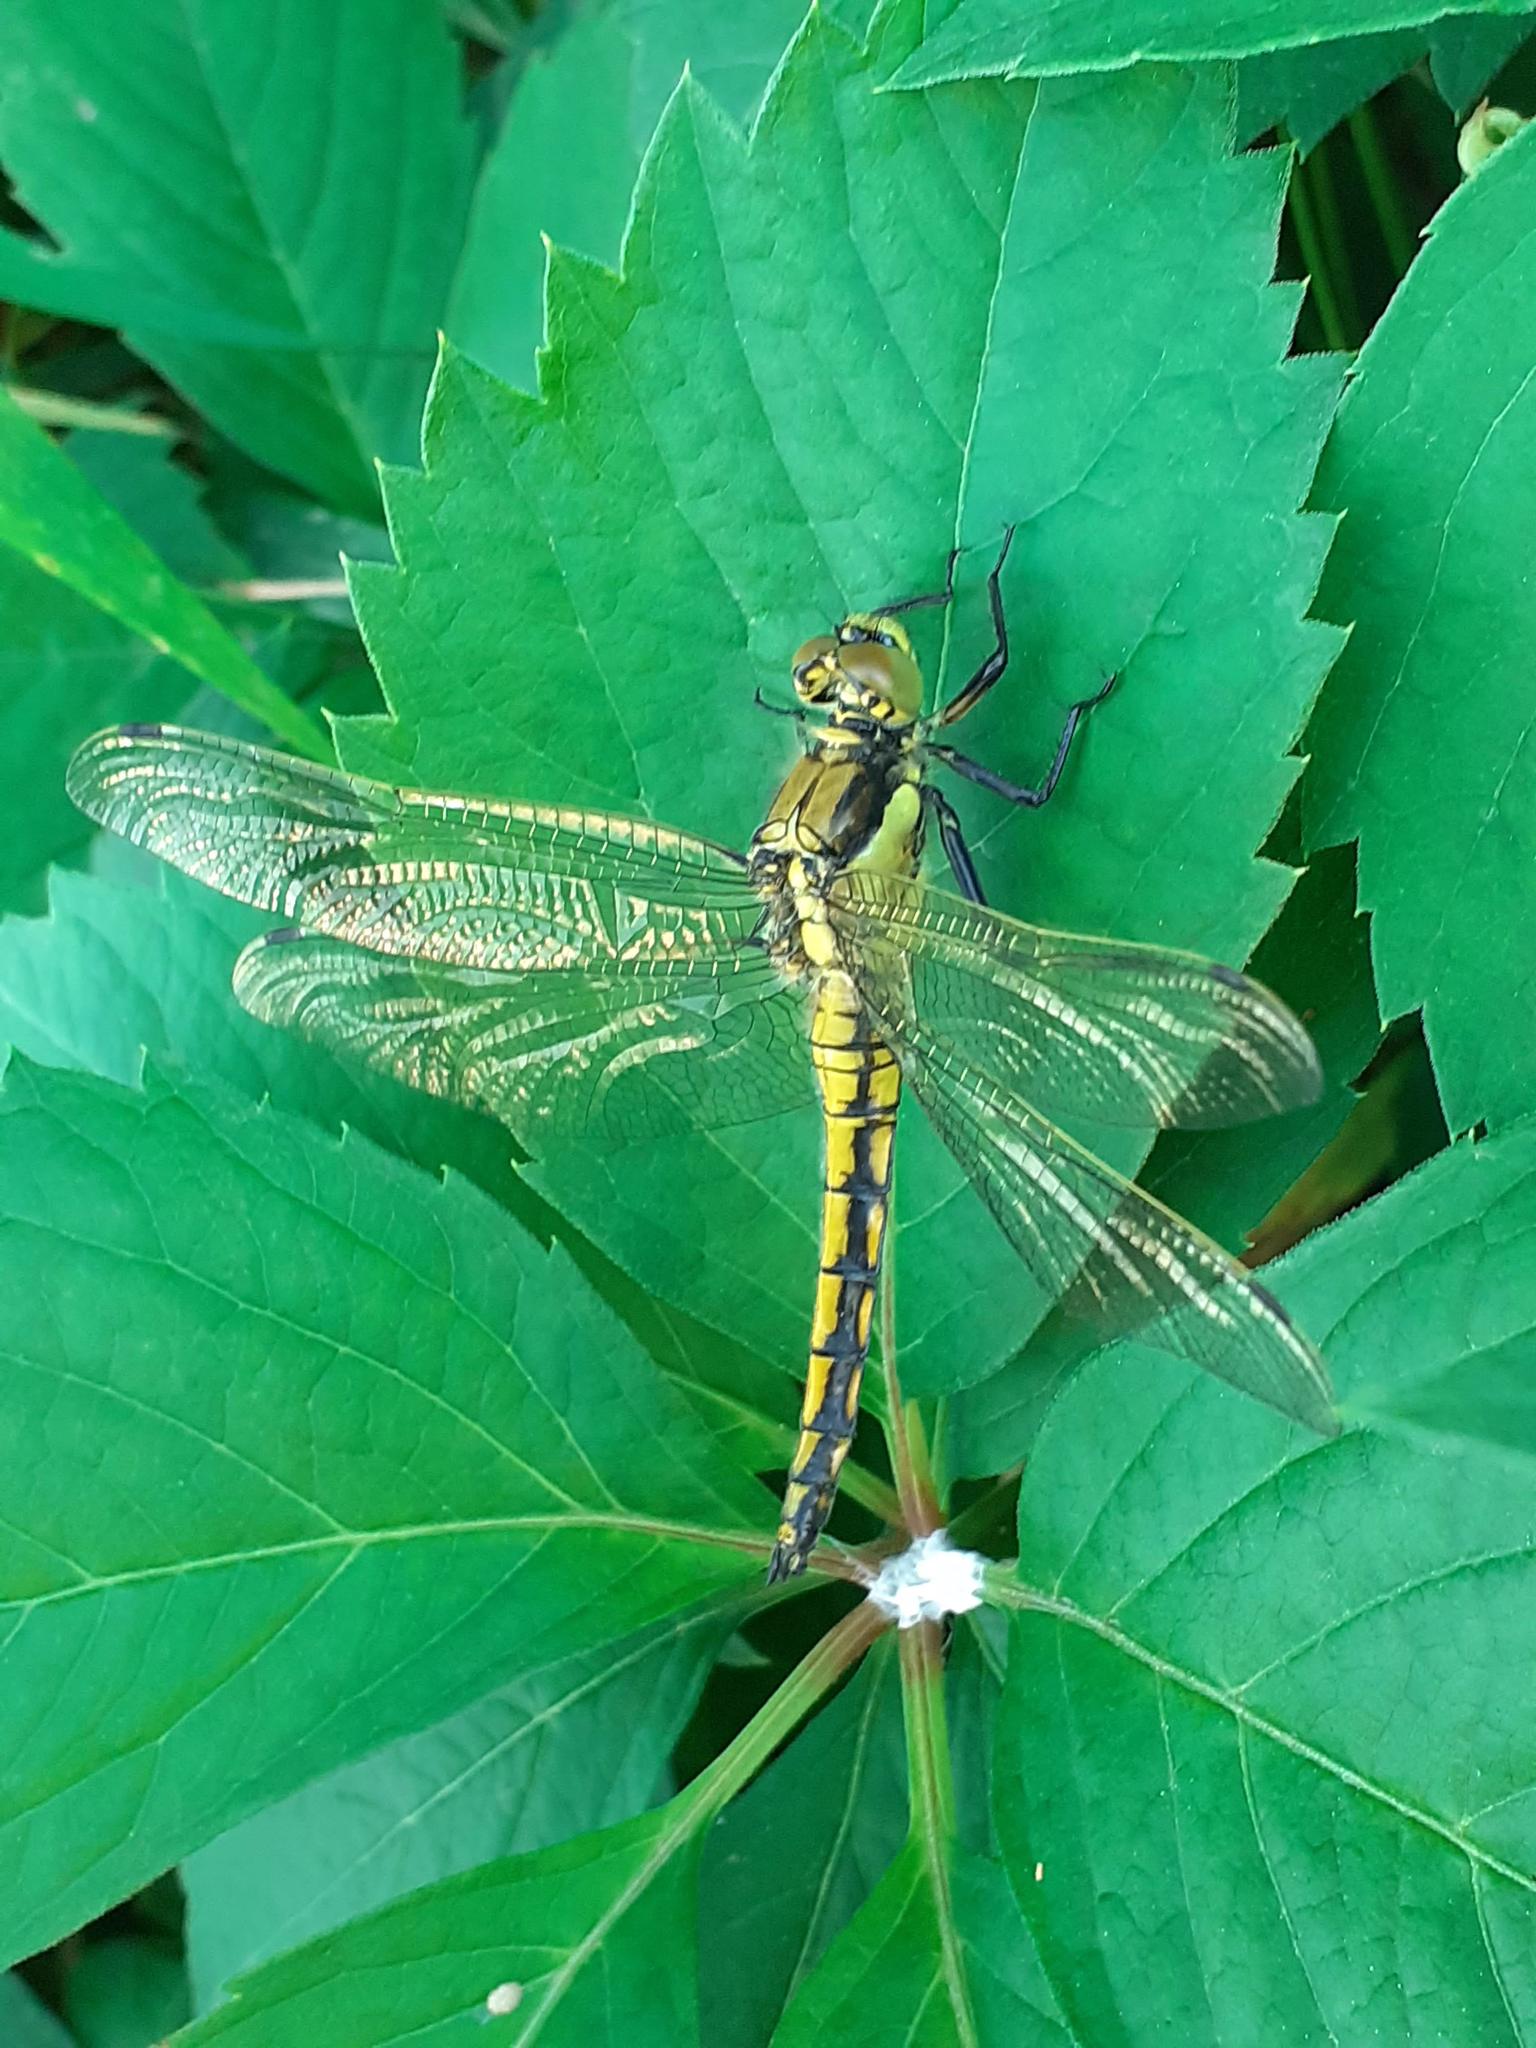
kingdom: Animalia
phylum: Arthropoda
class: Insecta
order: Odonata
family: Libellulidae
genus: Orthetrum
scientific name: Orthetrum cancellatum
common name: Black-tailed skimmer
